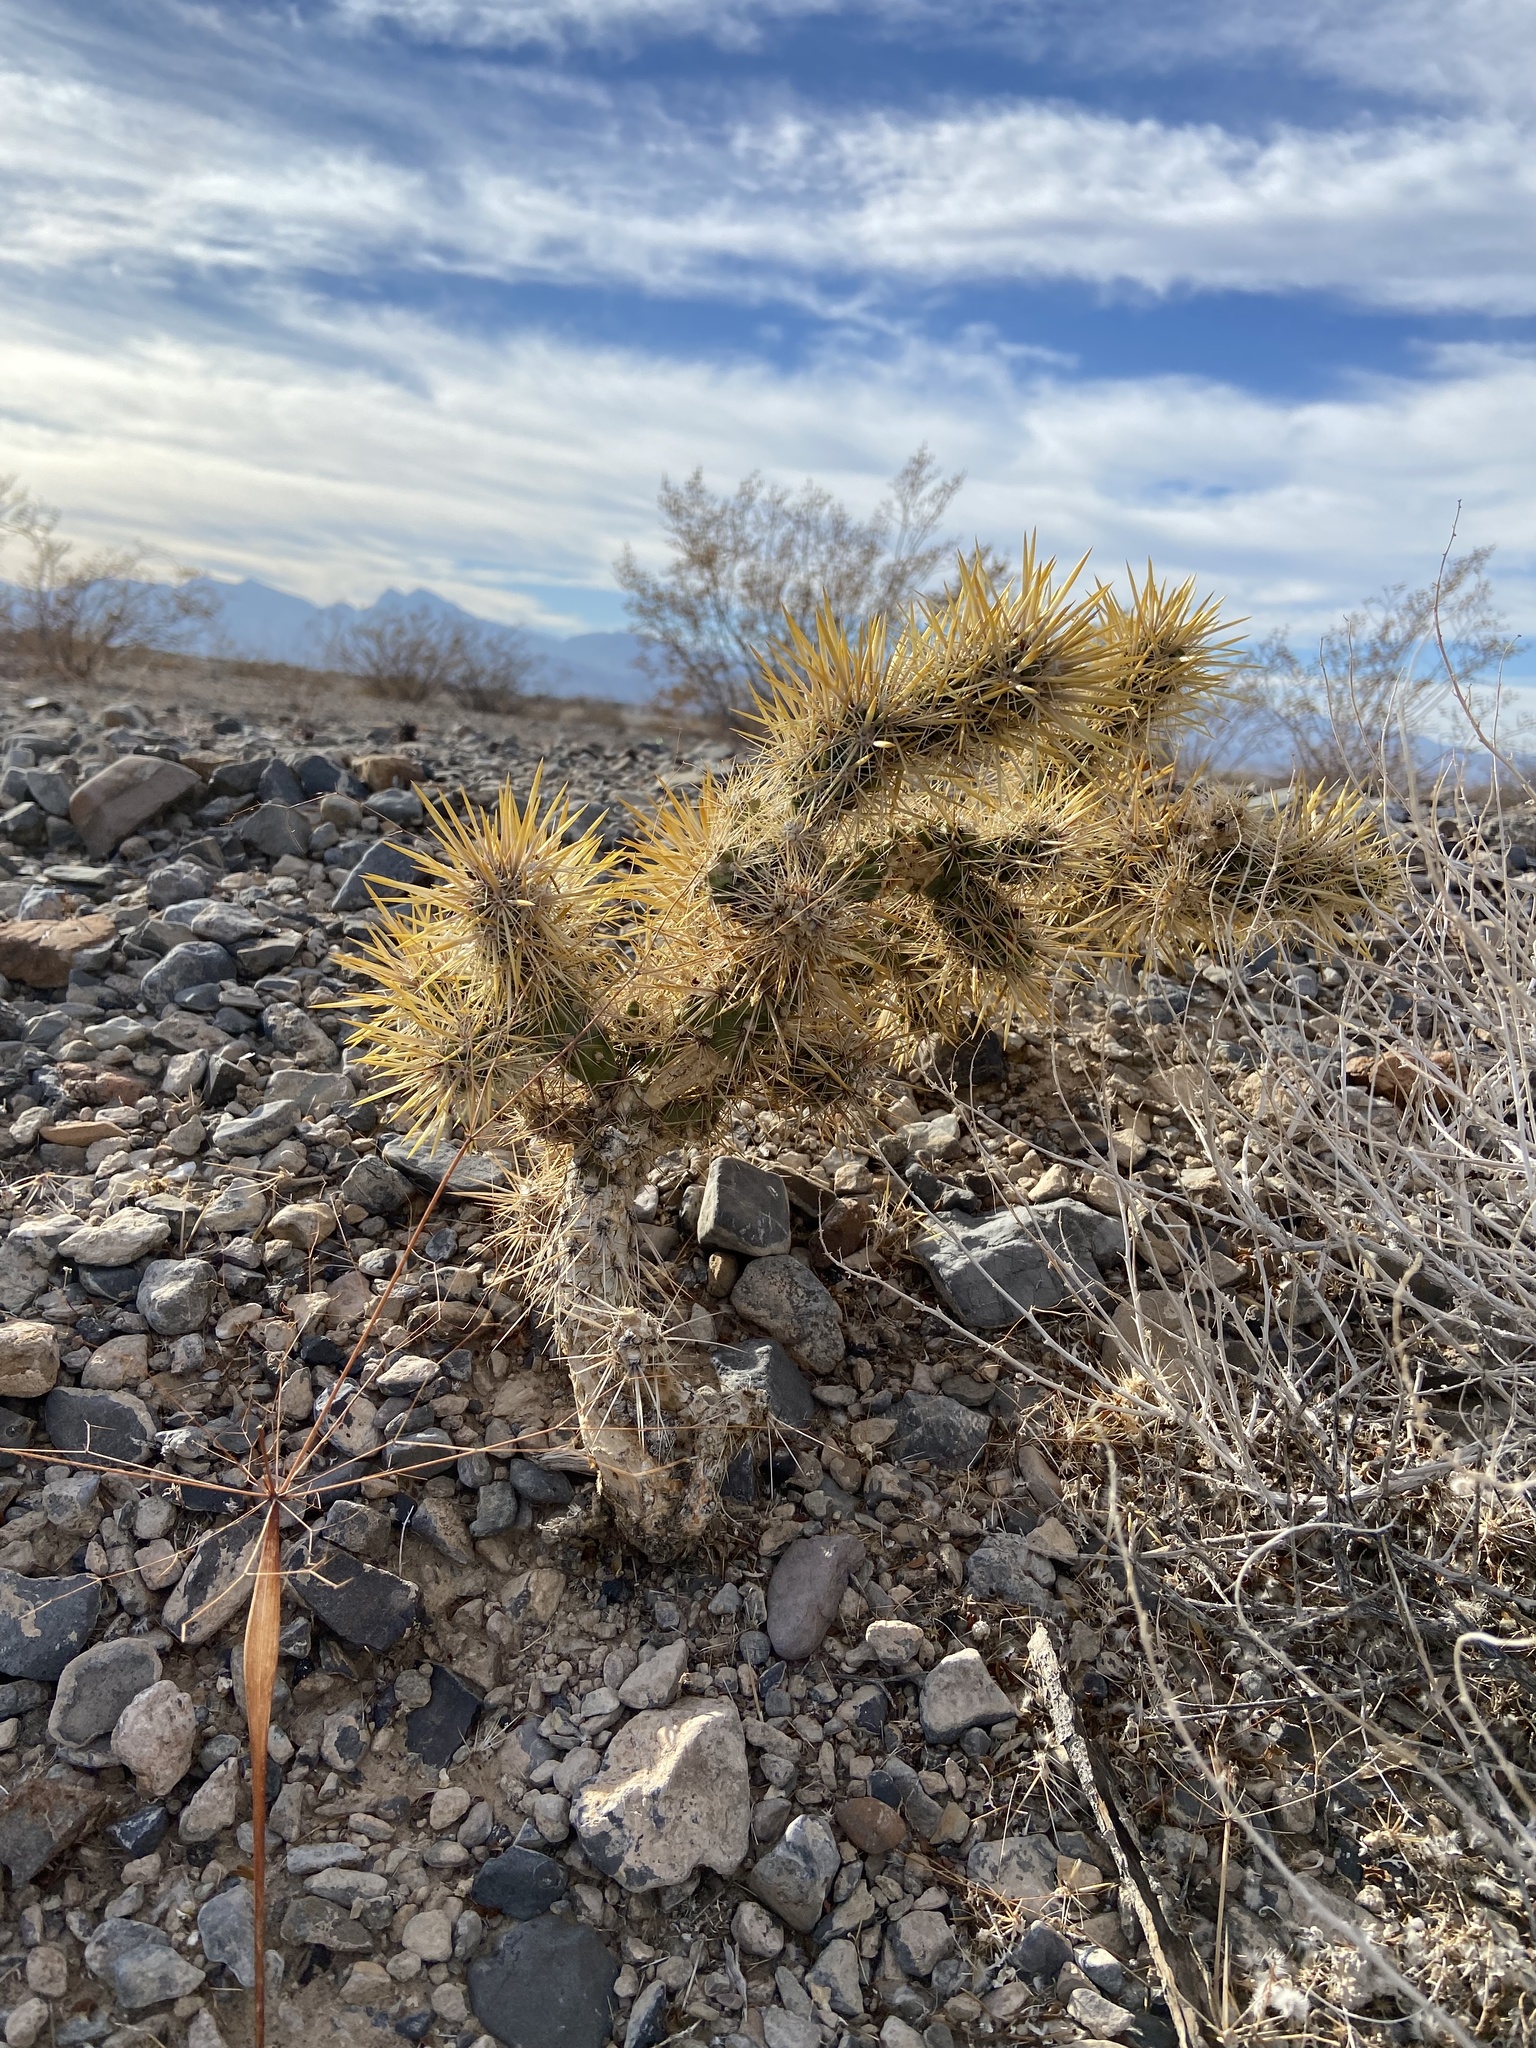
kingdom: Plantae
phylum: Tracheophyta
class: Magnoliopsida
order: Caryophyllales
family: Cactaceae
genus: Cylindropuntia
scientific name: Cylindropuntia echinocarpa
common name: Ground cholla
